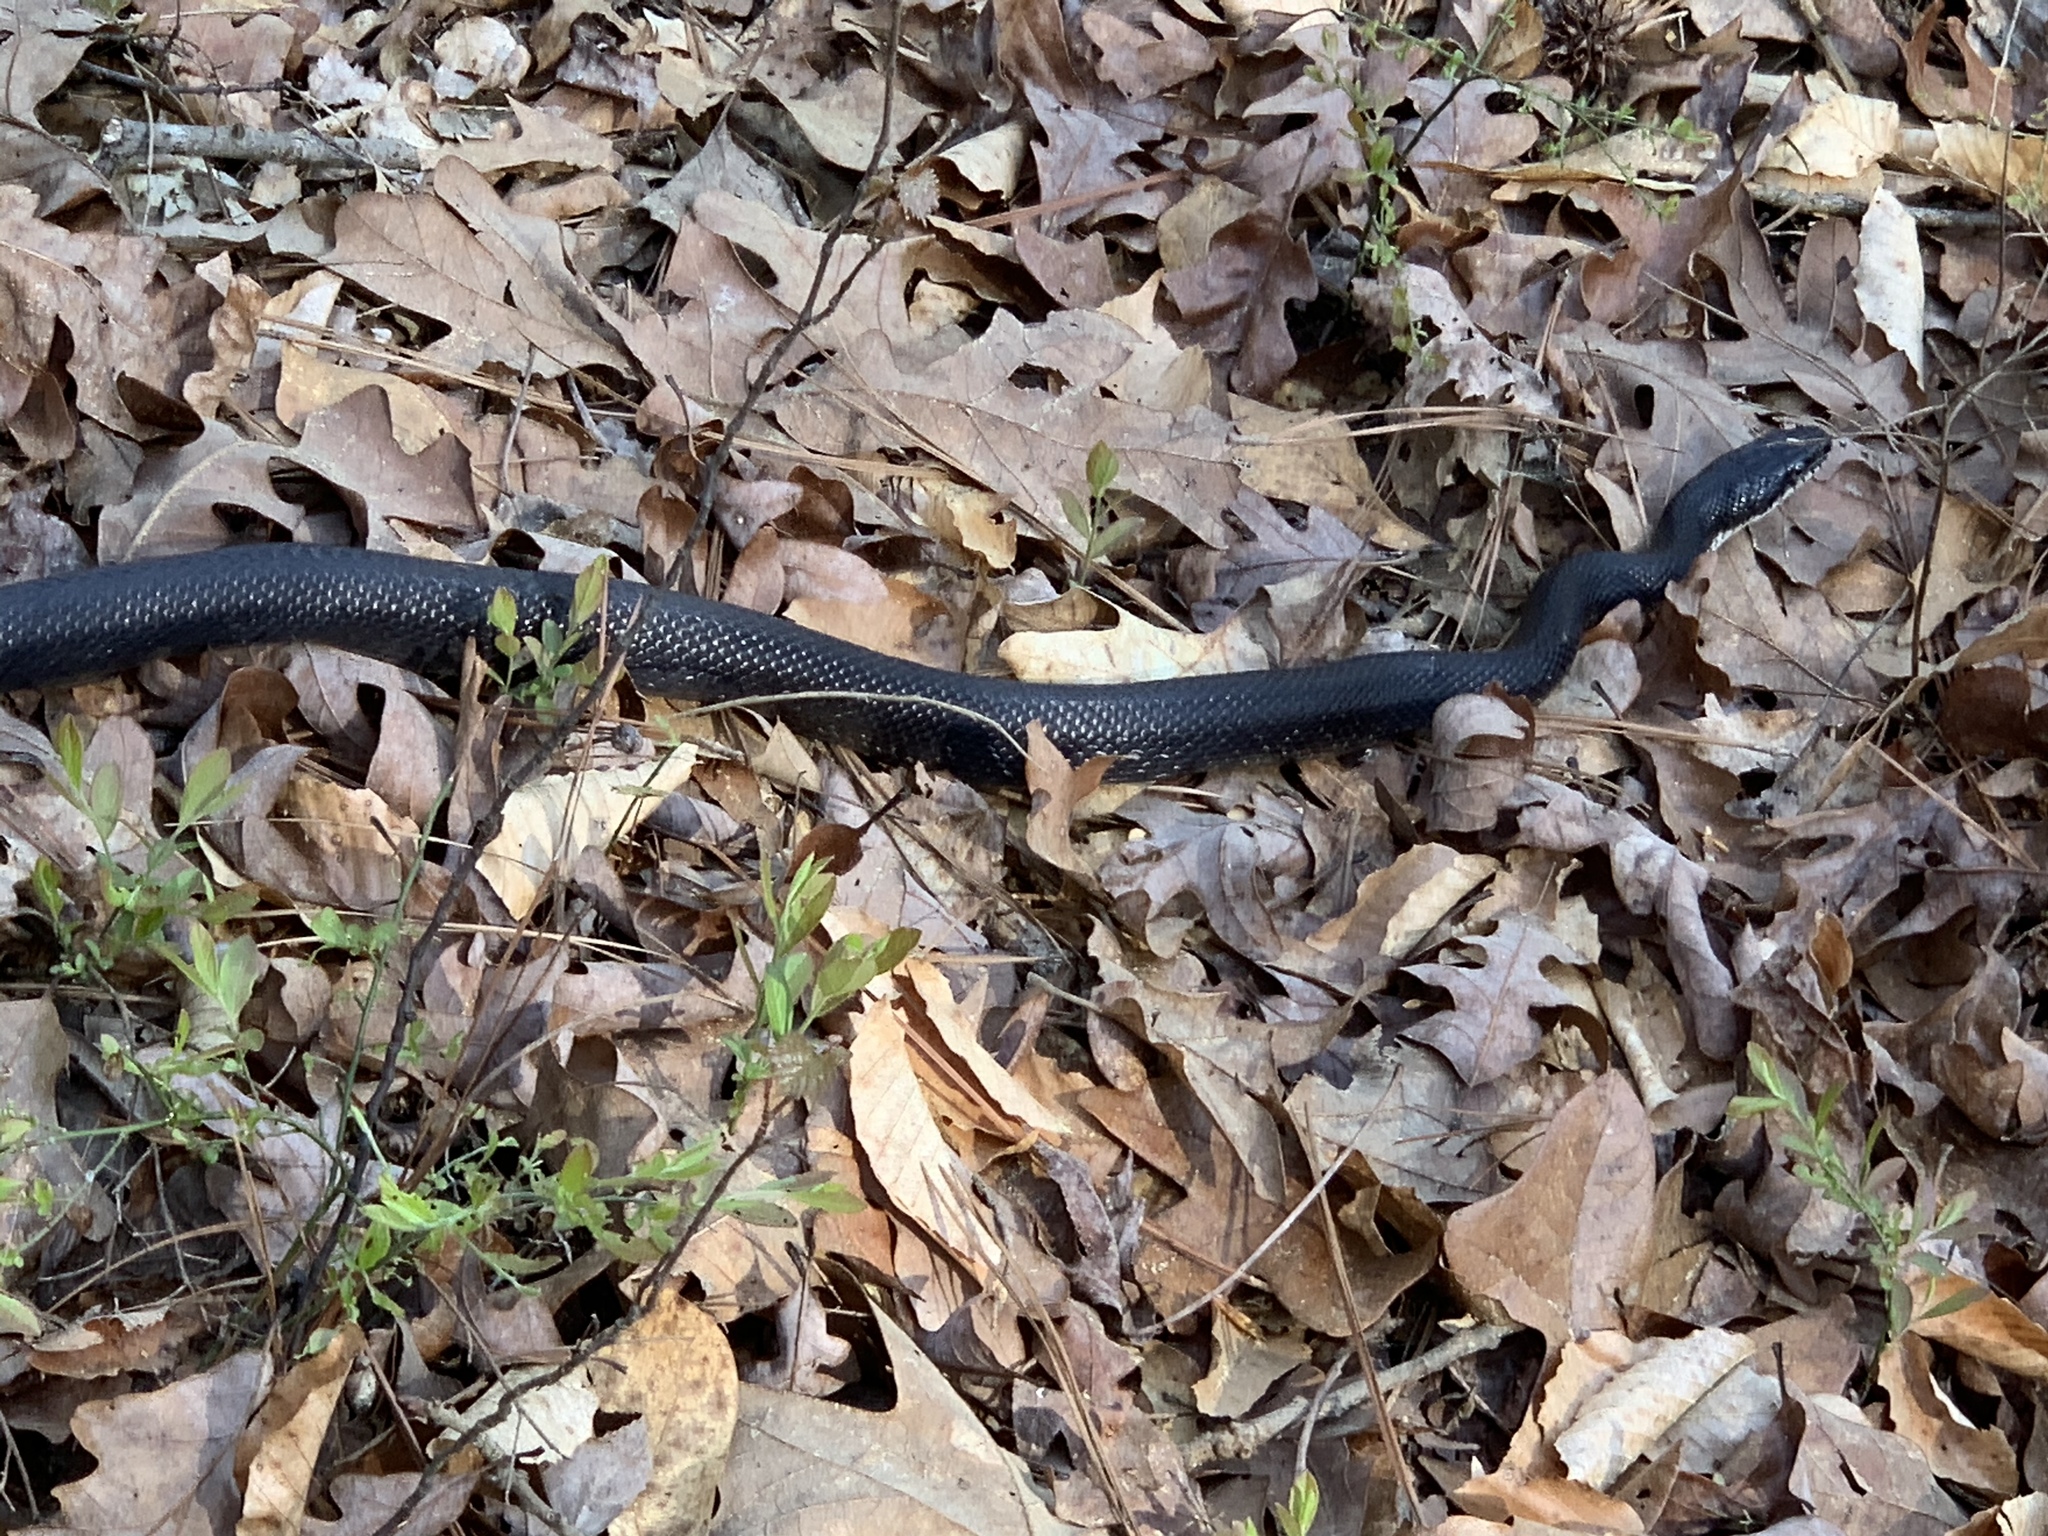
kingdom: Animalia
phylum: Chordata
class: Squamata
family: Colubridae
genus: Pantherophis
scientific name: Pantherophis alleghaniensis
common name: Eastern rat snake
